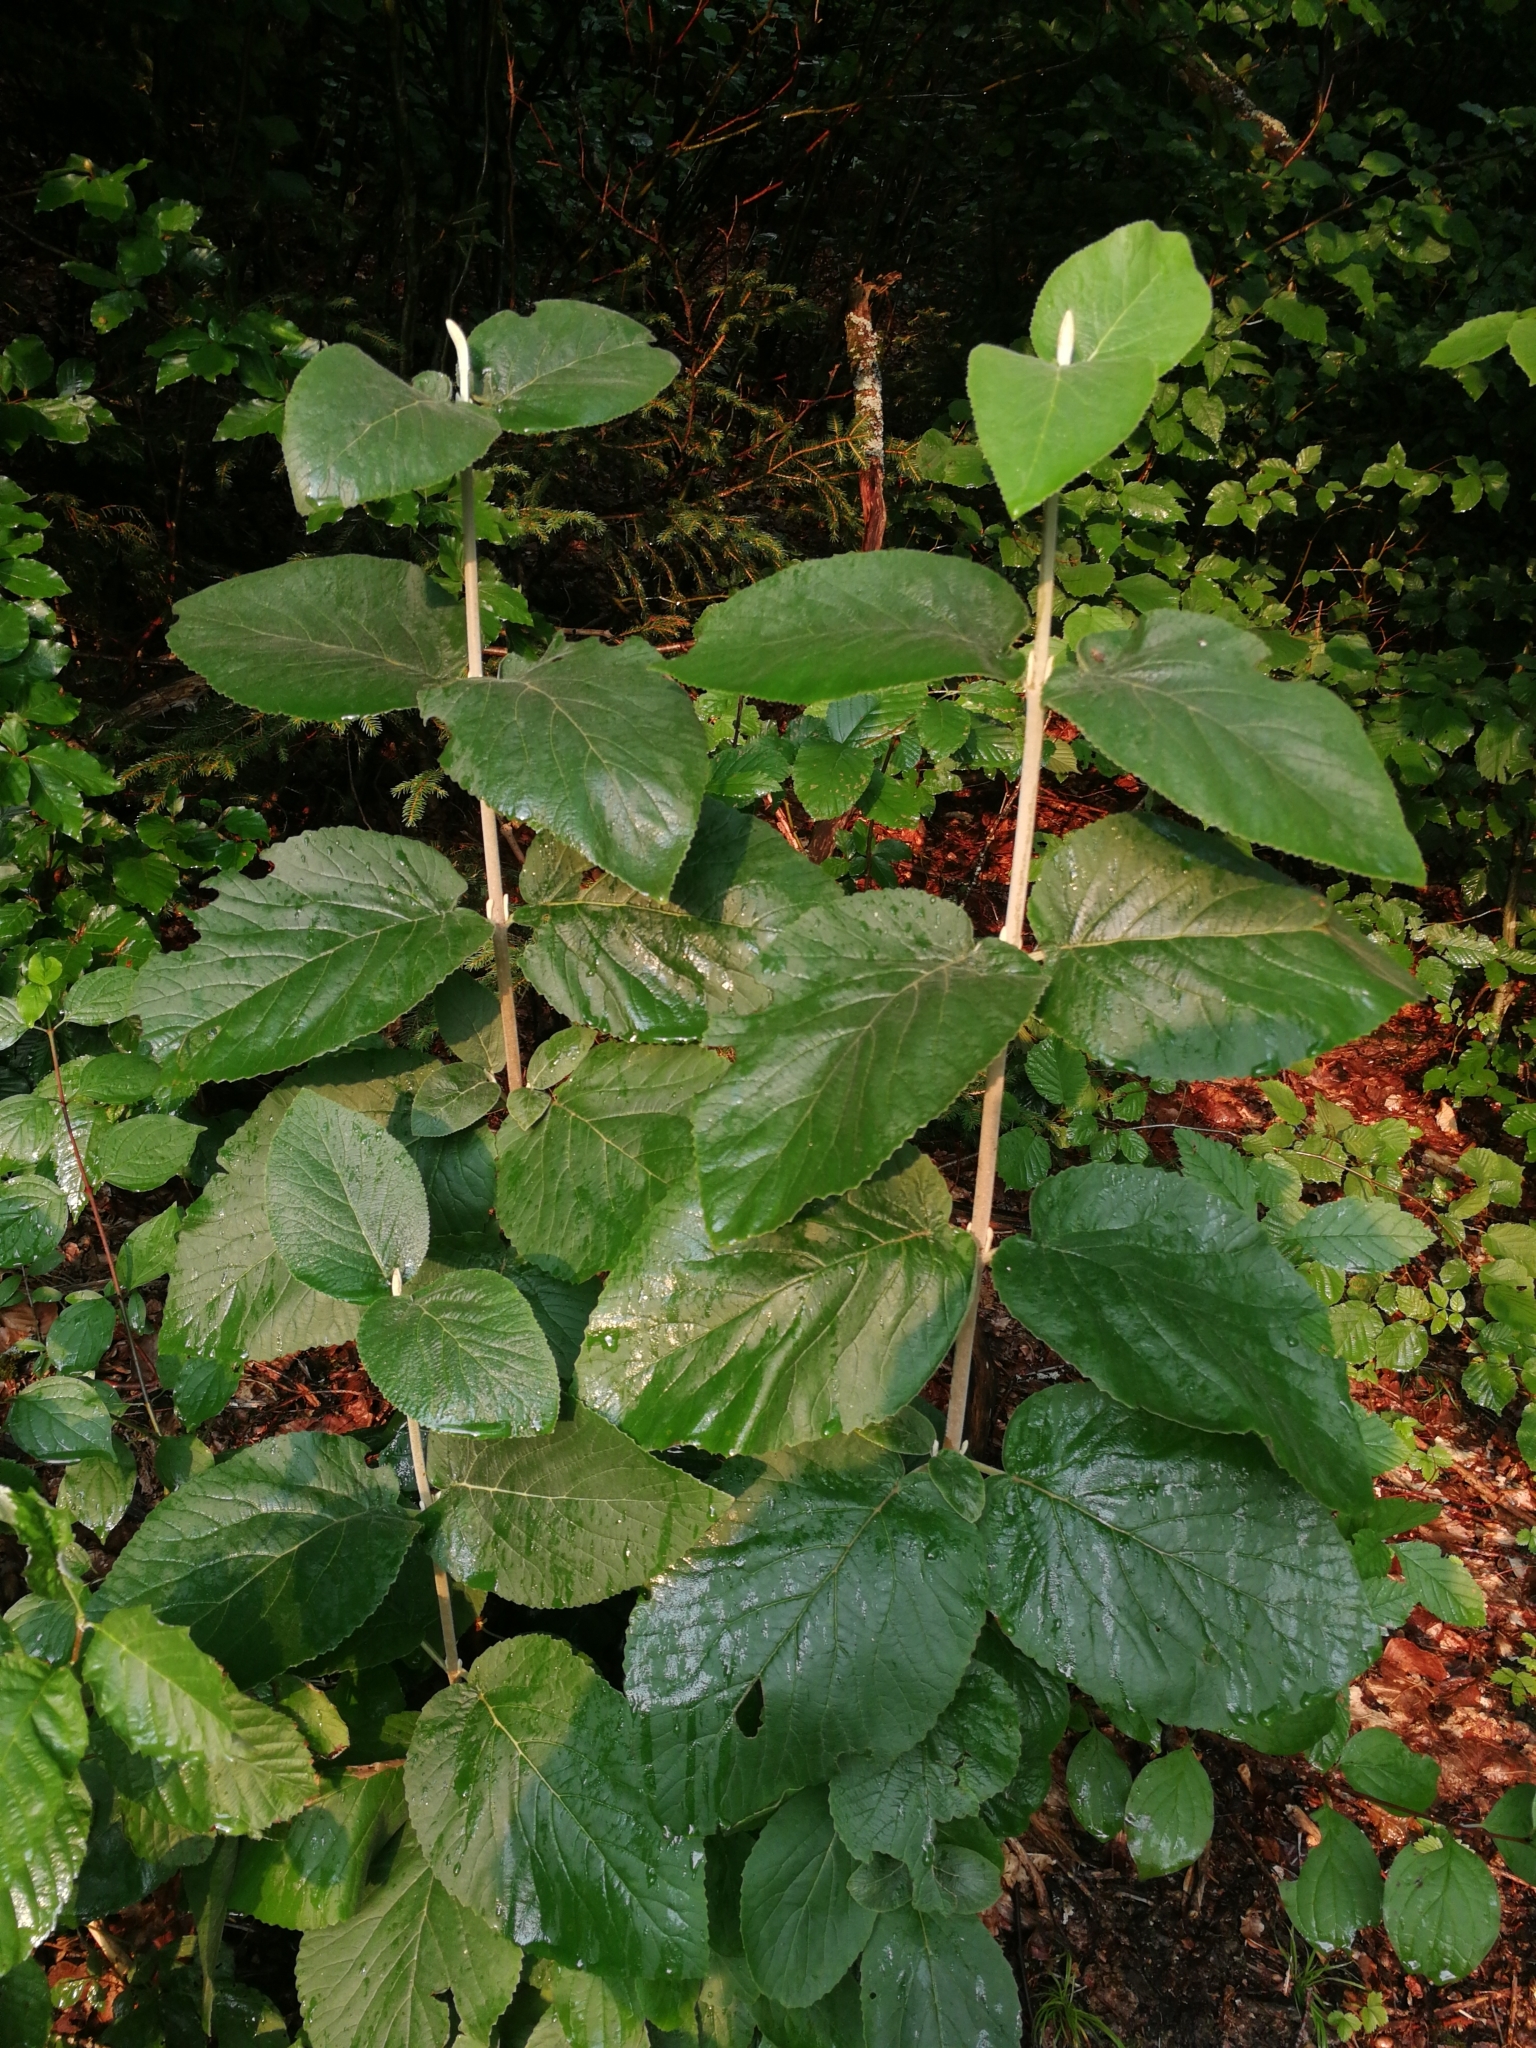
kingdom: Plantae
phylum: Tracheophyta
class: Magnoliopsida
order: Dipsacales
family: Viburnaceae
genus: Viburnum
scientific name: Viburnum lantana
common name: Wayfaring tree
